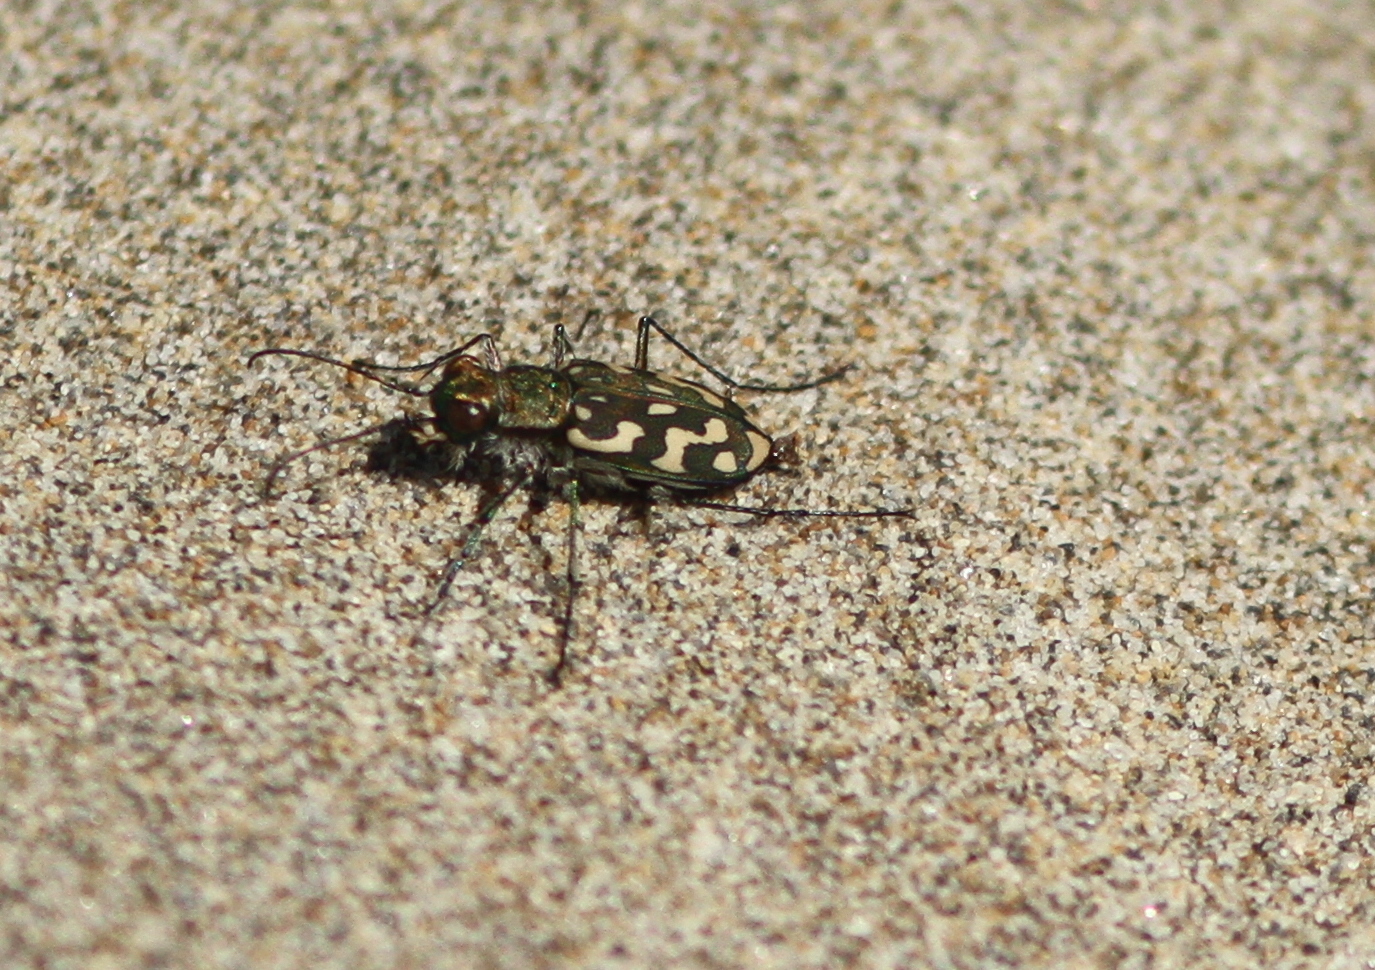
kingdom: Animalia
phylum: Arthropoda
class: Insecta
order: Coleoptera
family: Carabidae
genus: Lophyra
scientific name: Lophyra flexuosa
